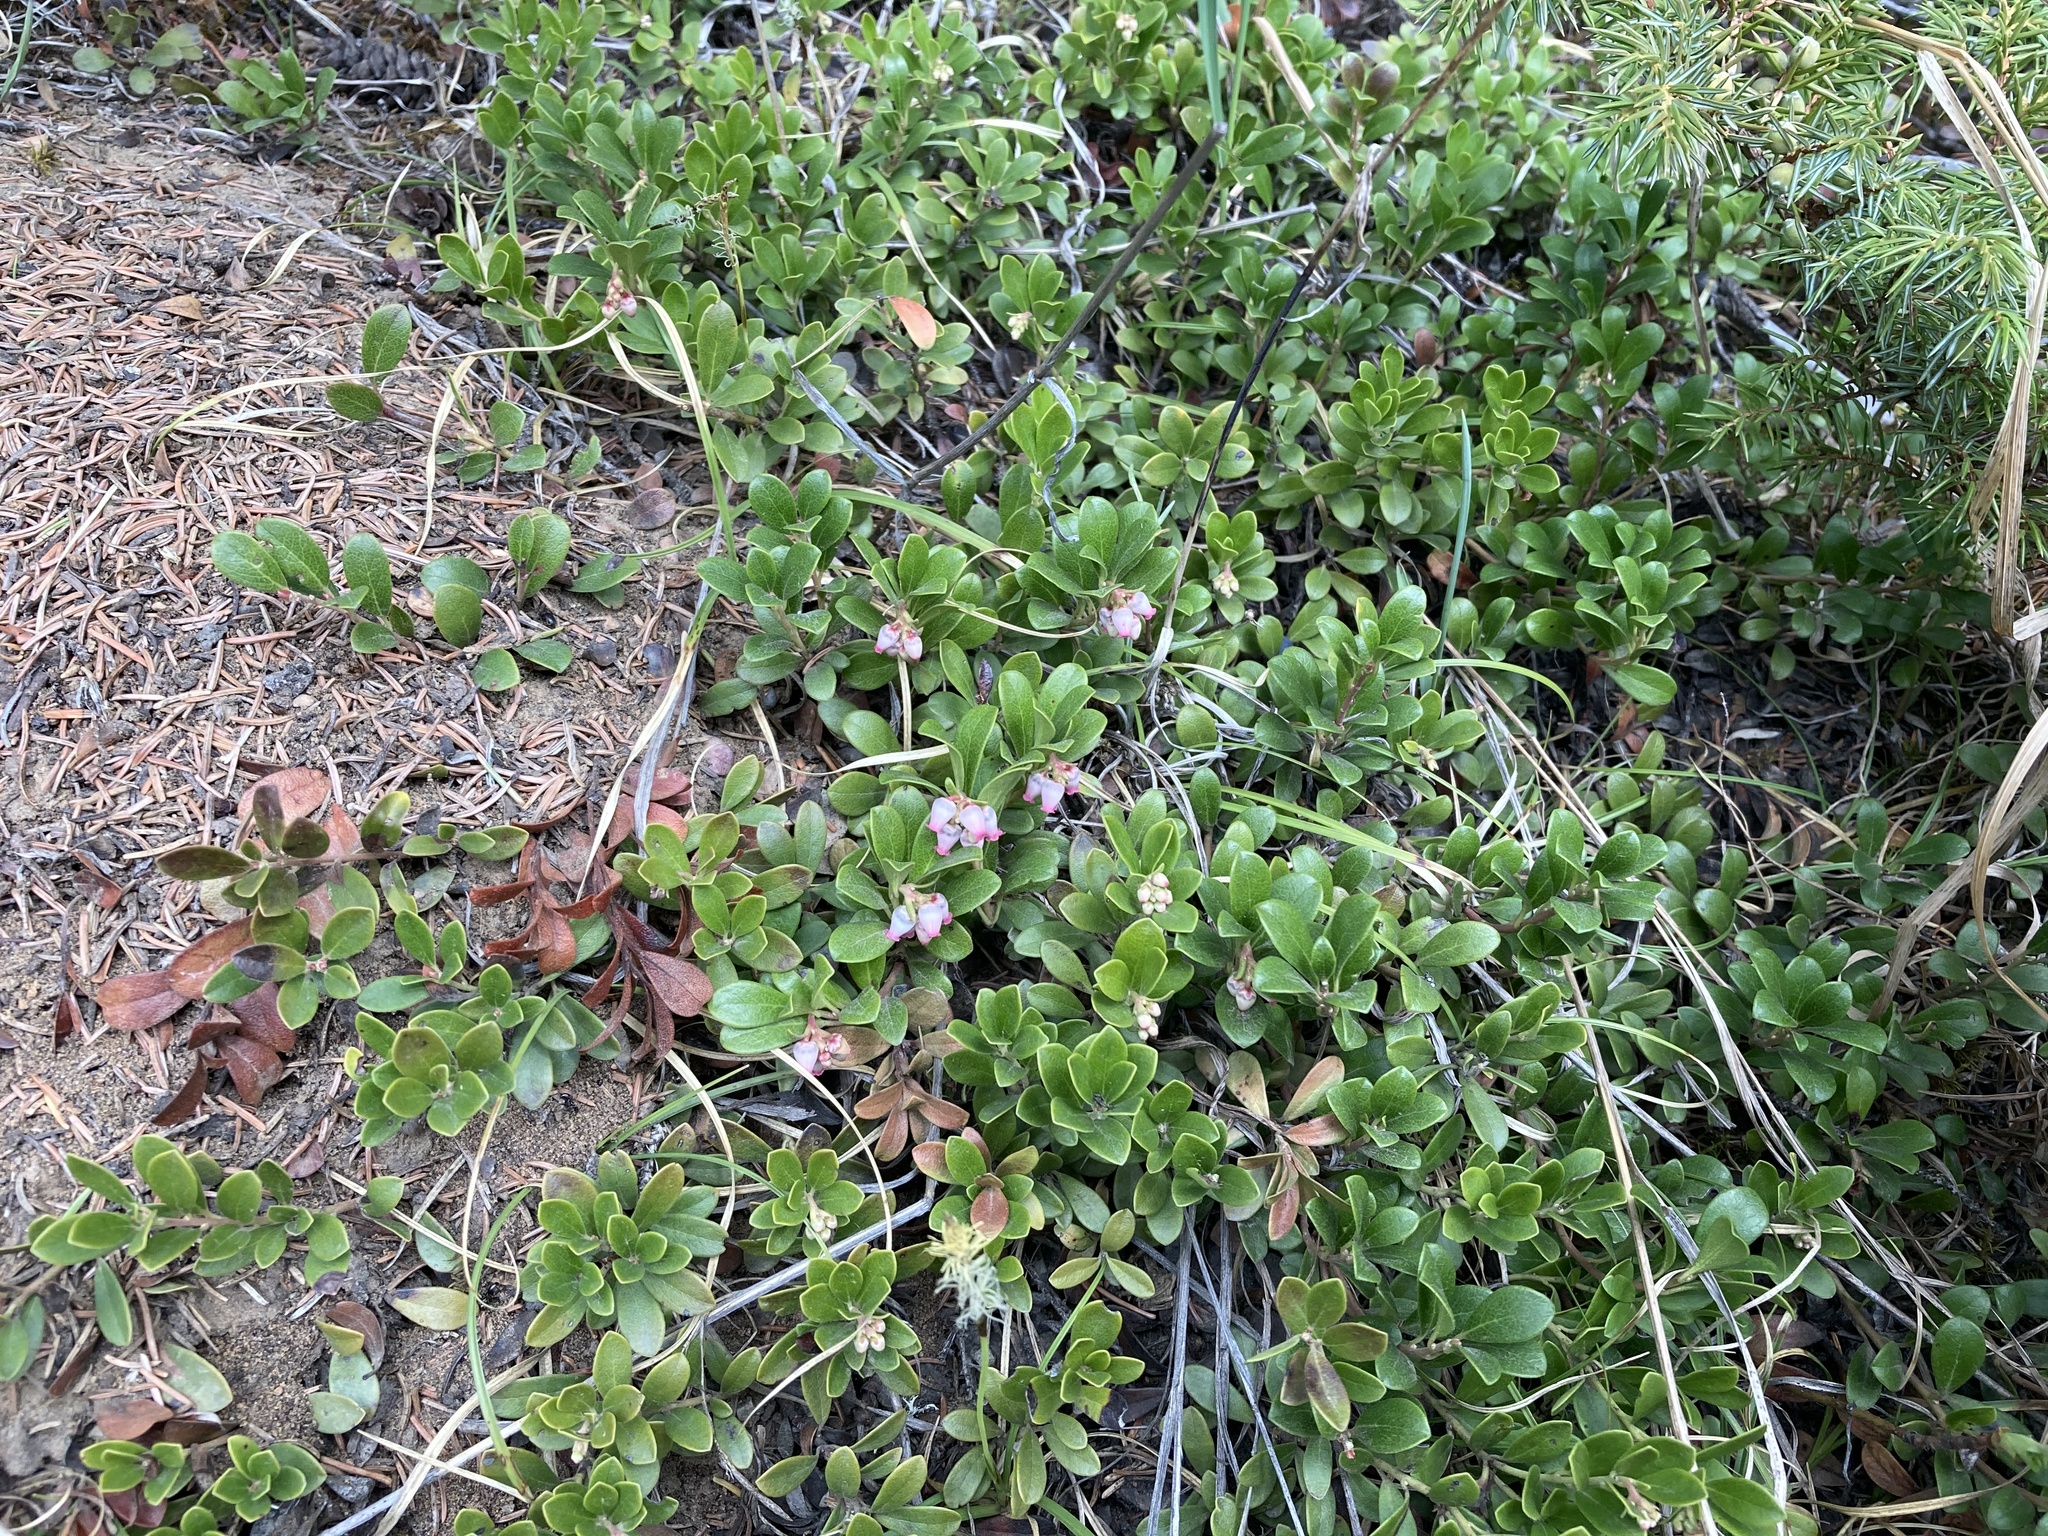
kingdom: Plantae
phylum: Tracheophyta
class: Magnoliopsida
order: Ericales
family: Ericaceae
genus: Arctostaphylos
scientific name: Arctostaphylos uva-ursi
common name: Bearberry
